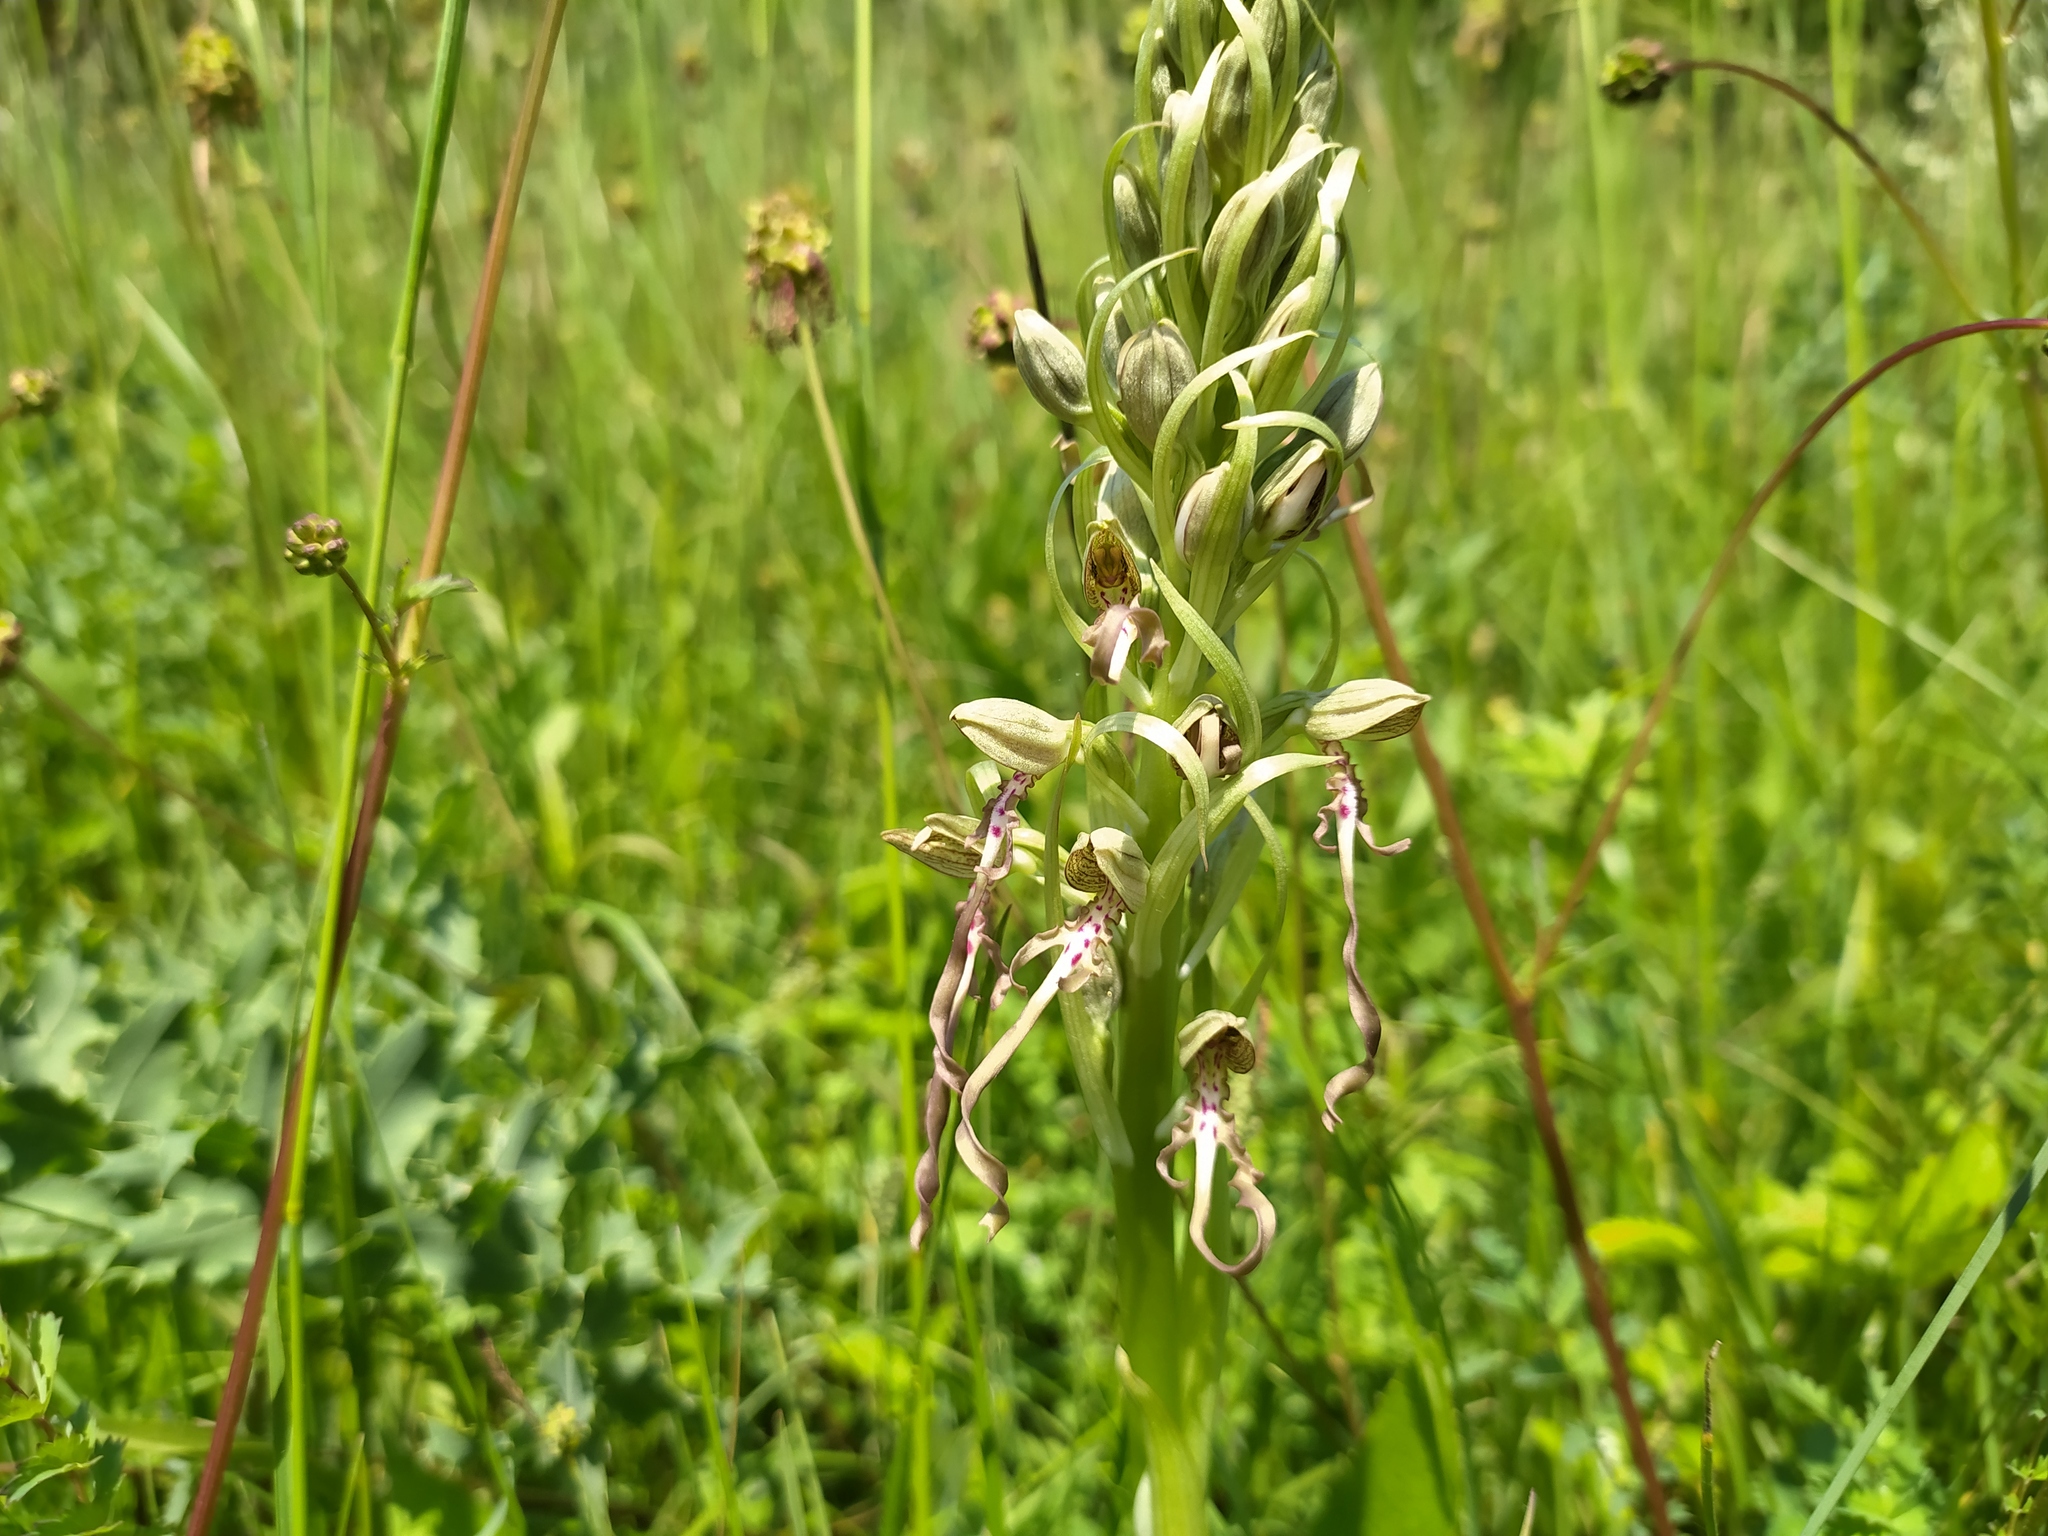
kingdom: Plantae
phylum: Tracheophyta
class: Liliopsida
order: Asparagales
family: Orchidaceae
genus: Himantoglossum
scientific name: Himantoglossum hircinum
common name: Lizard orchid
